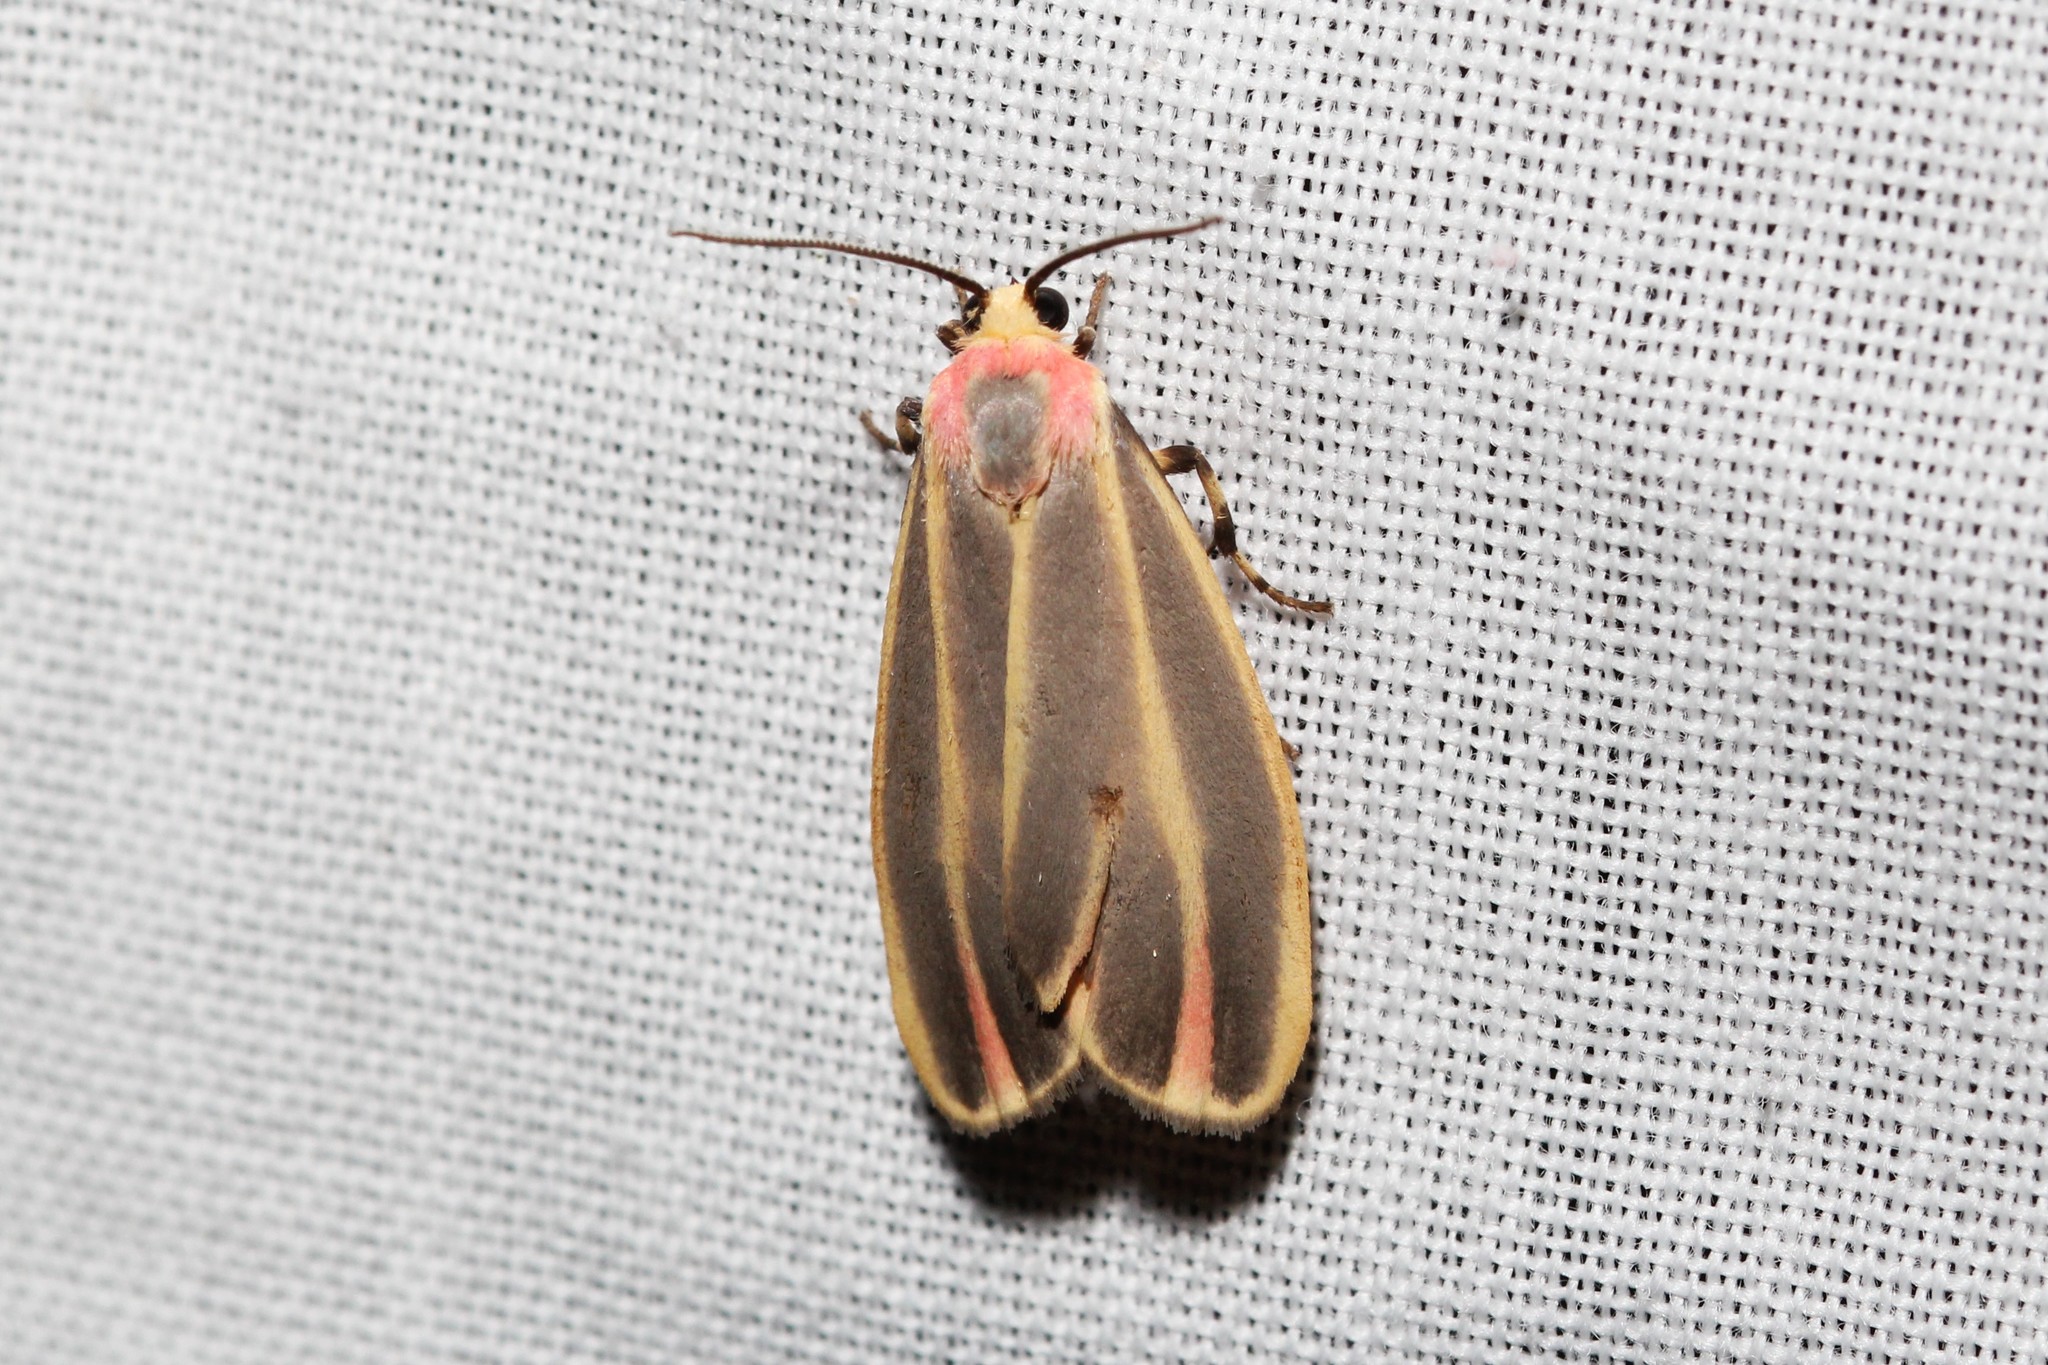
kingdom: Animalia
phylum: Arthropoda
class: Insecta
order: Lepidoptera
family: Erebidae
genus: Hypoprepia
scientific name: Hypoprepia fucosa
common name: Painted lichen moth
